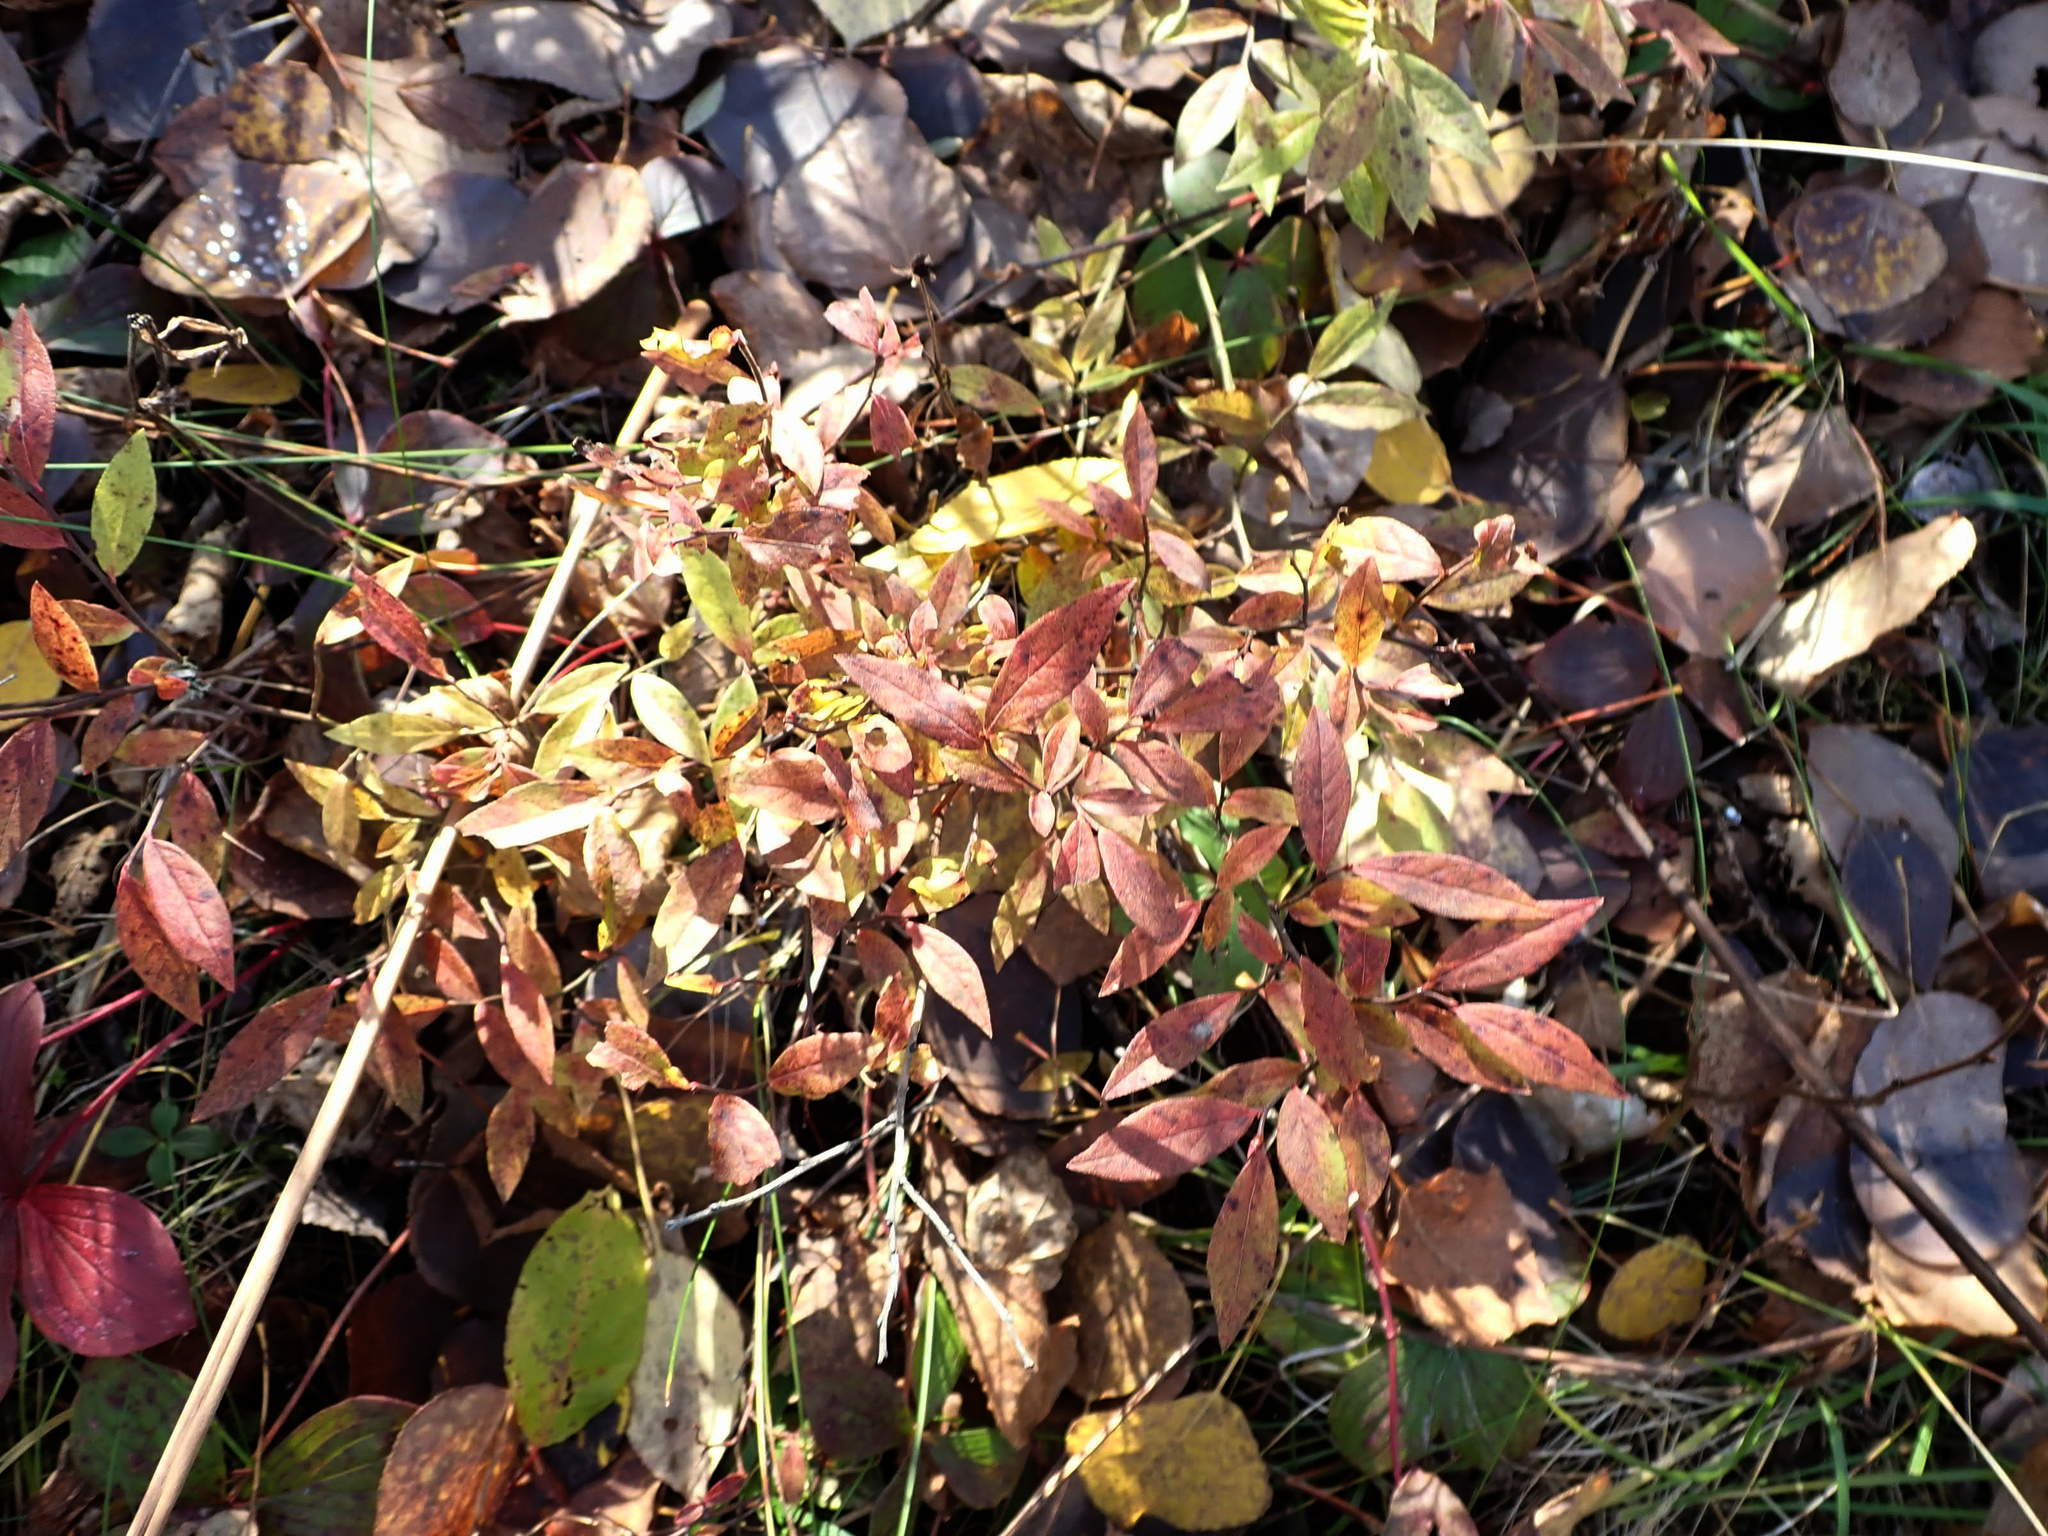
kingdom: Plantae
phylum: Tracheophyta
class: Magnoliopsida
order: Ericales
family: Ericaceae
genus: Vaccinium
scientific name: Vaccinium angustifolium
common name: Early lowbush blueberry
